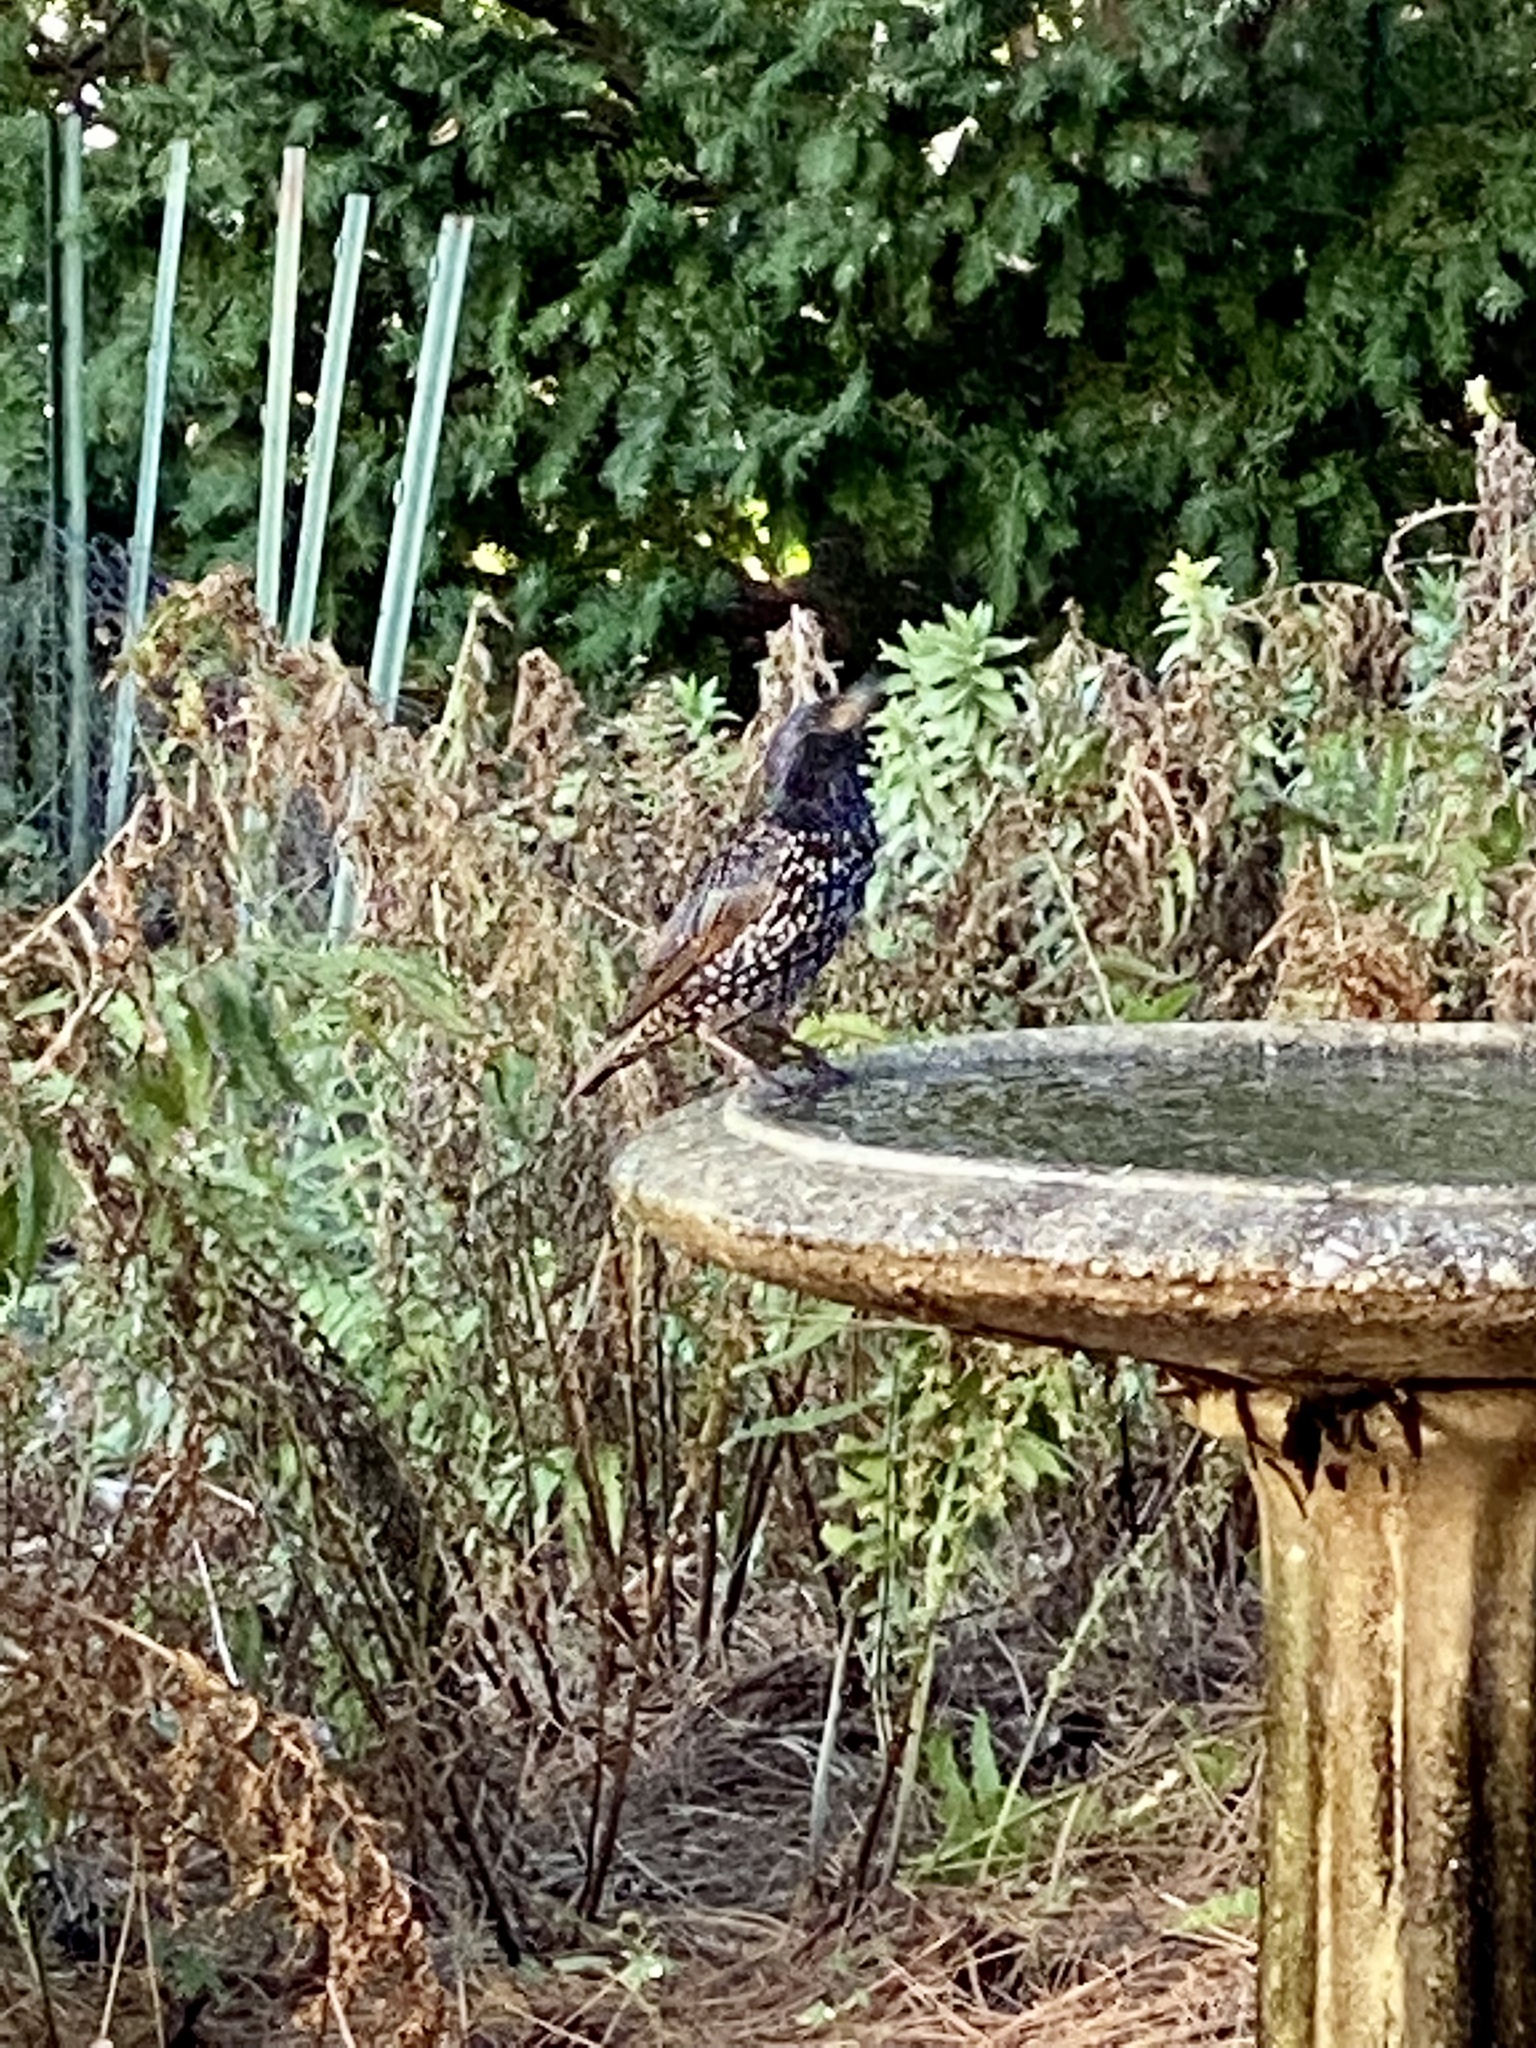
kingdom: Animalia
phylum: Chordata
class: Aves
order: Passeriformes
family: Sturnidae
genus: Sturnus
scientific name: Sturnus vulgaris
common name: Common starling
